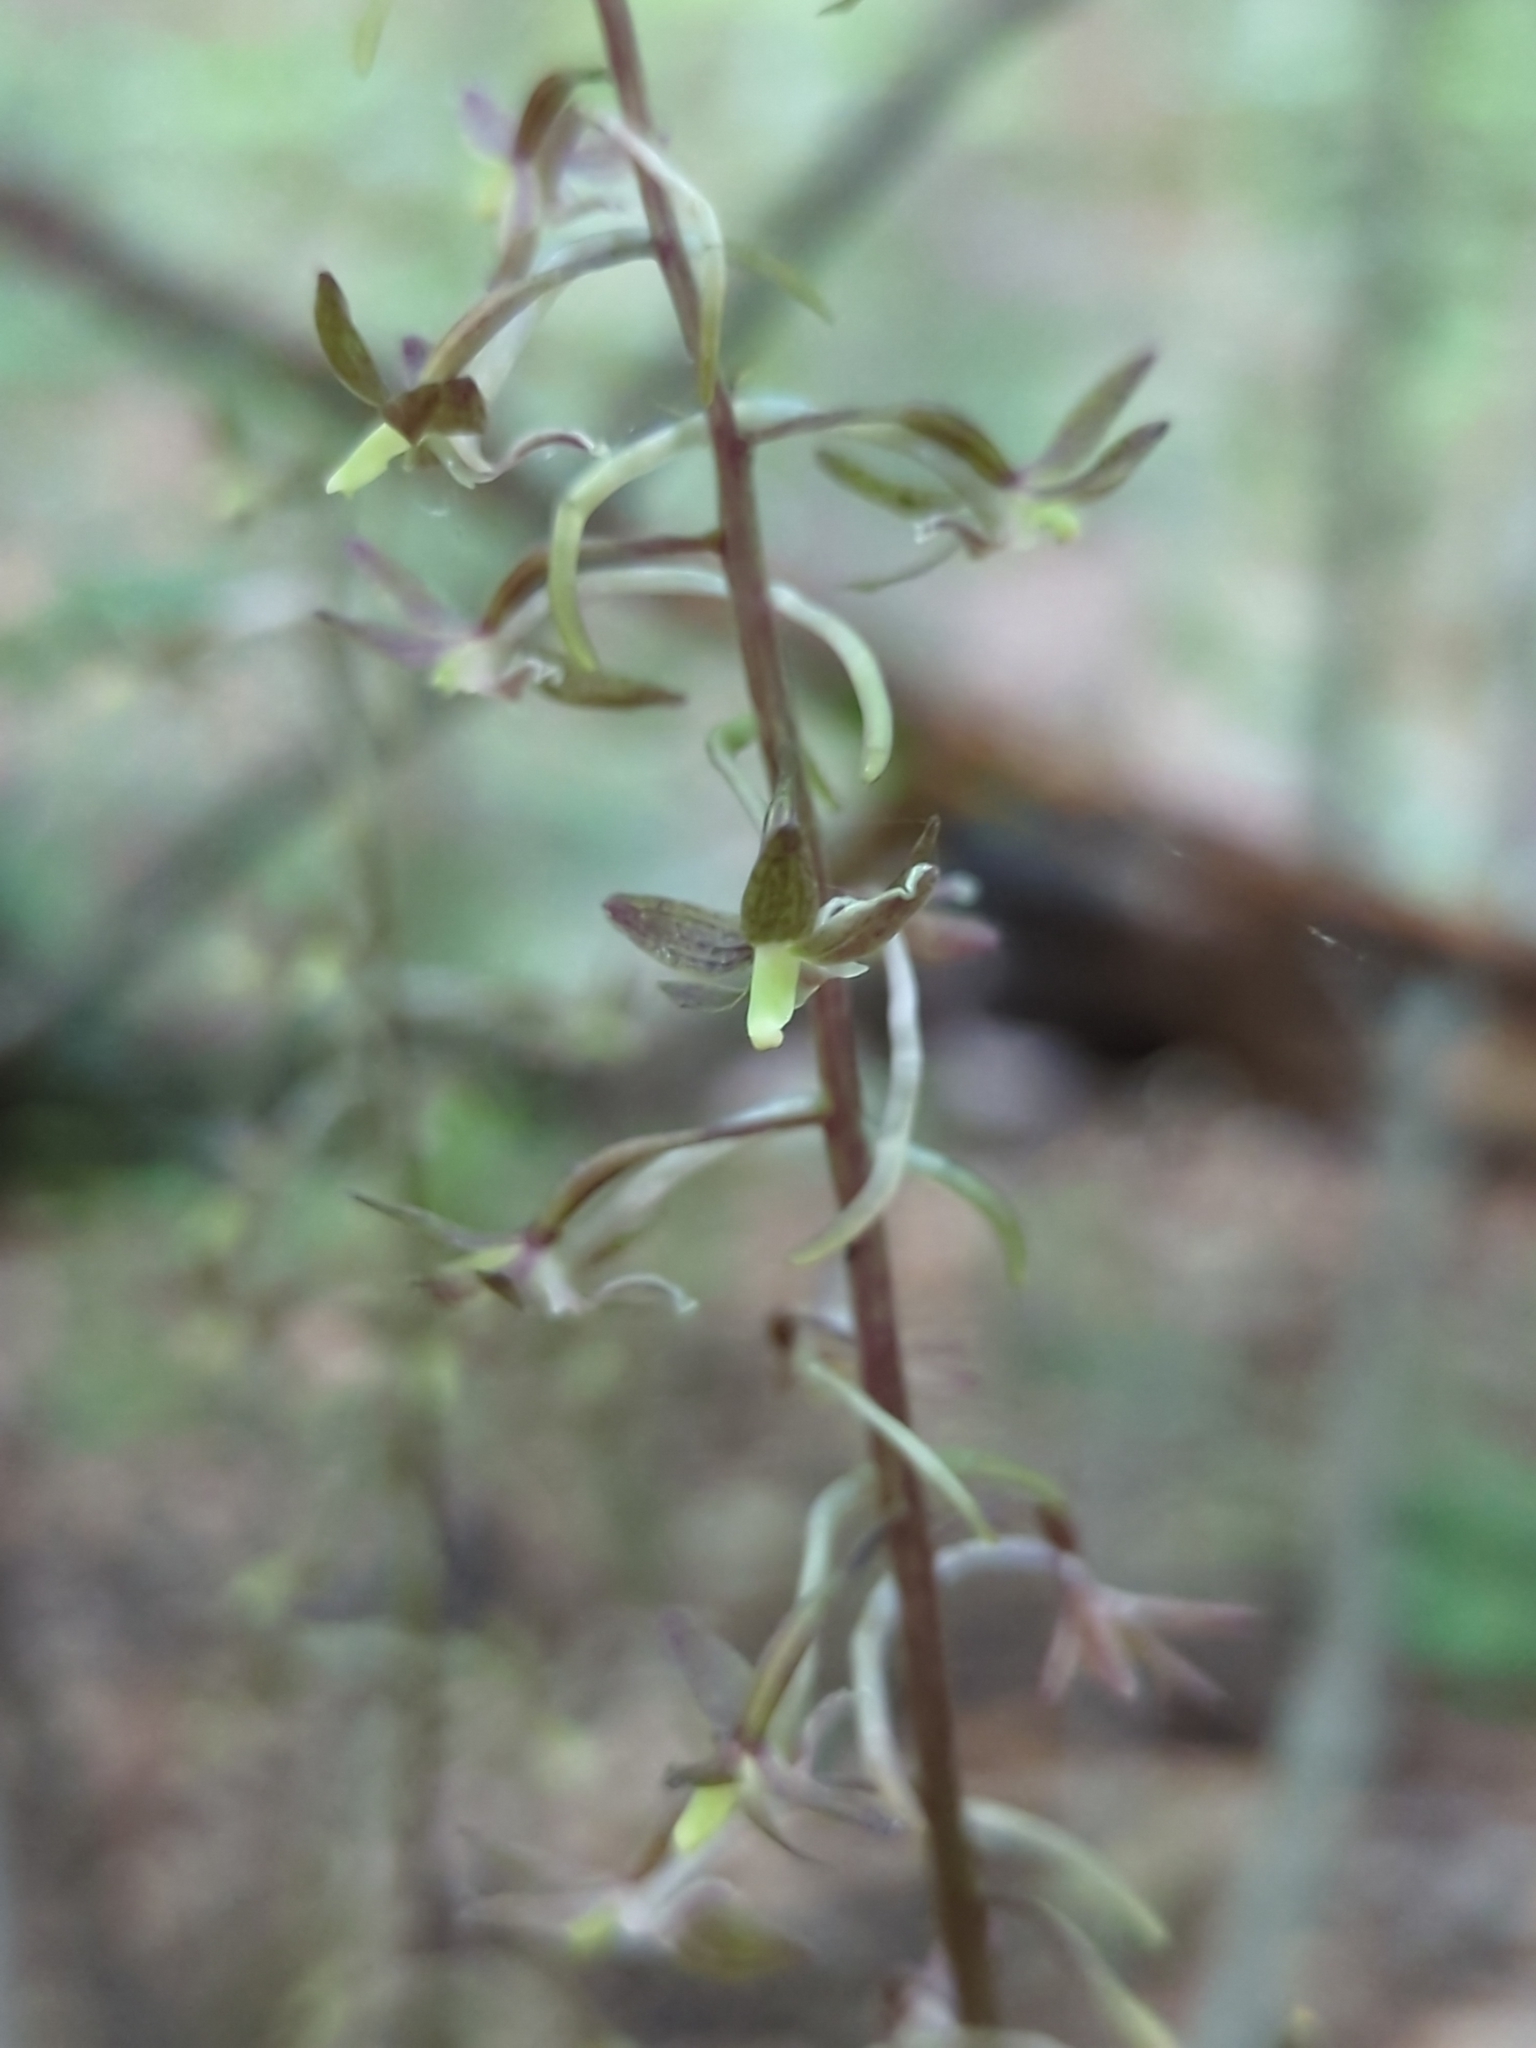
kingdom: Plantae
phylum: Tracheophyta
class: Liliopsida
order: Asparagales
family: Orchidaceae
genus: Tipularia
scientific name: Tipularia discolor
